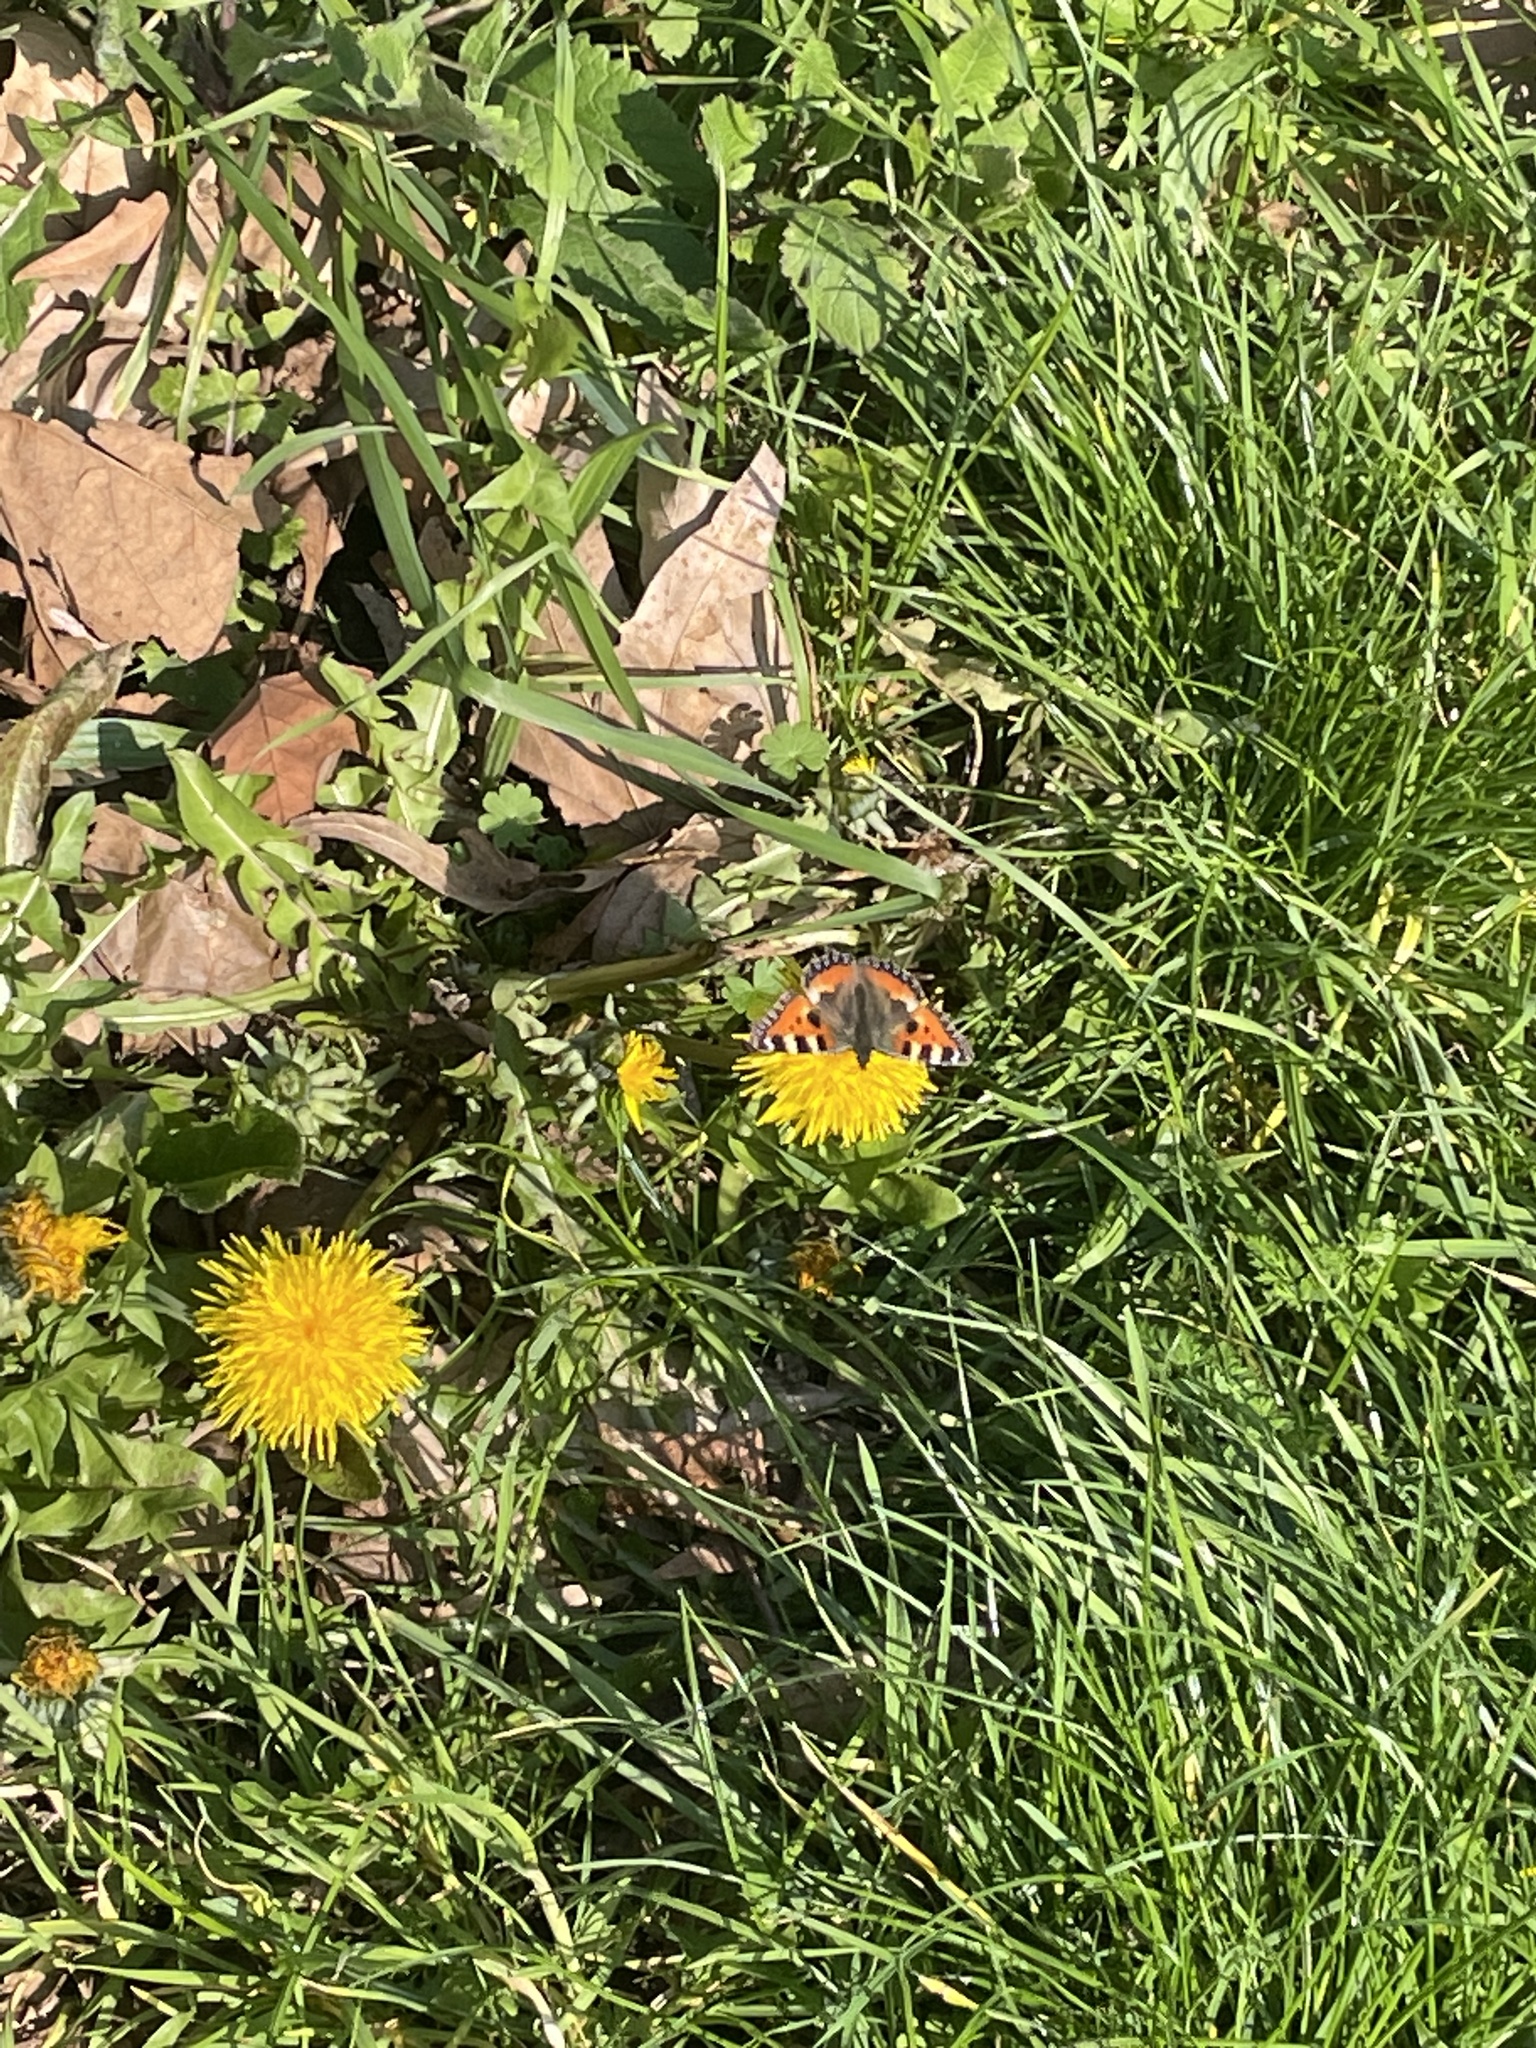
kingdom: Animalia
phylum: Arthropoda
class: Insecta
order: Lepidoptera
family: Nymphalidae
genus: Aglais
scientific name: Aglais urticae
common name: Small tortoiseshell
